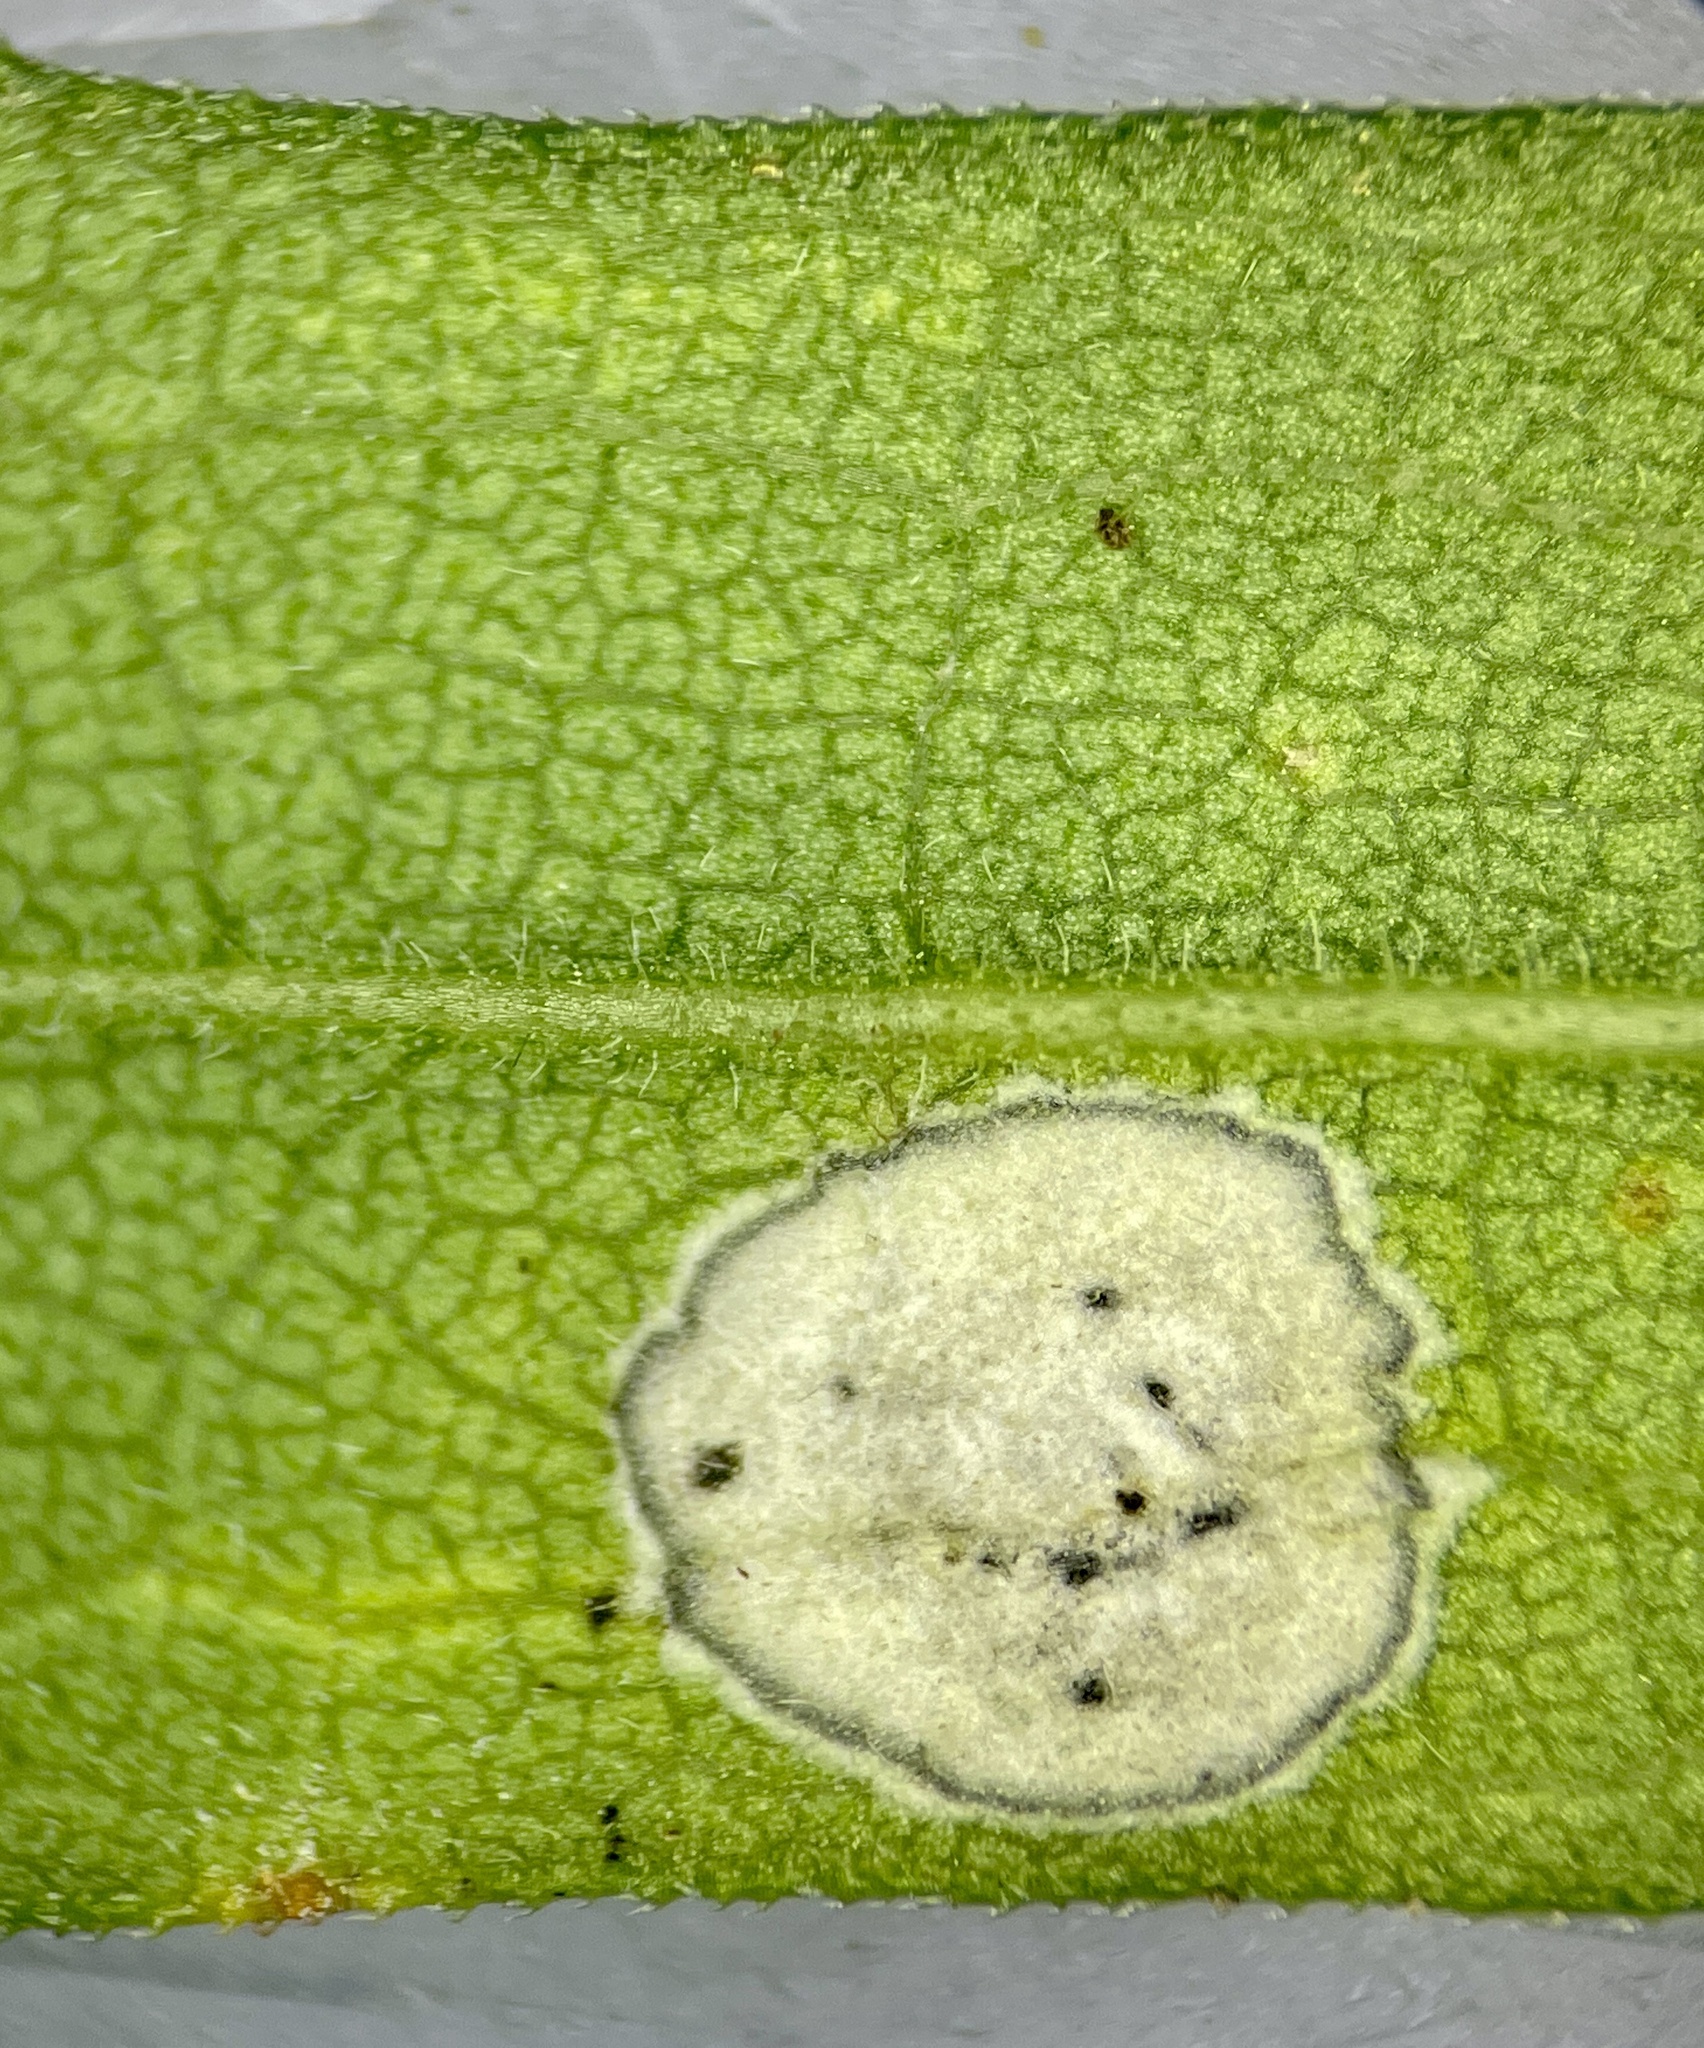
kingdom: Animalia
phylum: Arthropoda
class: Insecta
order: Diptera
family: Cecidomyiidae
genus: Asteromyia
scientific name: Asteromyia carbonifera
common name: Carbonifera goldenrod gall midge
